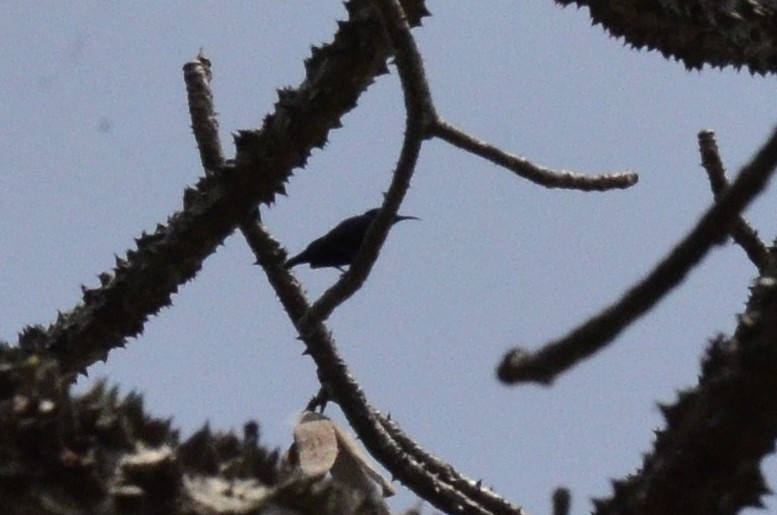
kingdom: Animalia
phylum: Chordata
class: Aves
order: Passeriformes
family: Nectariniidae
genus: Cinnyris
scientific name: Cinnyris asiaticus
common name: Purple sunbird
